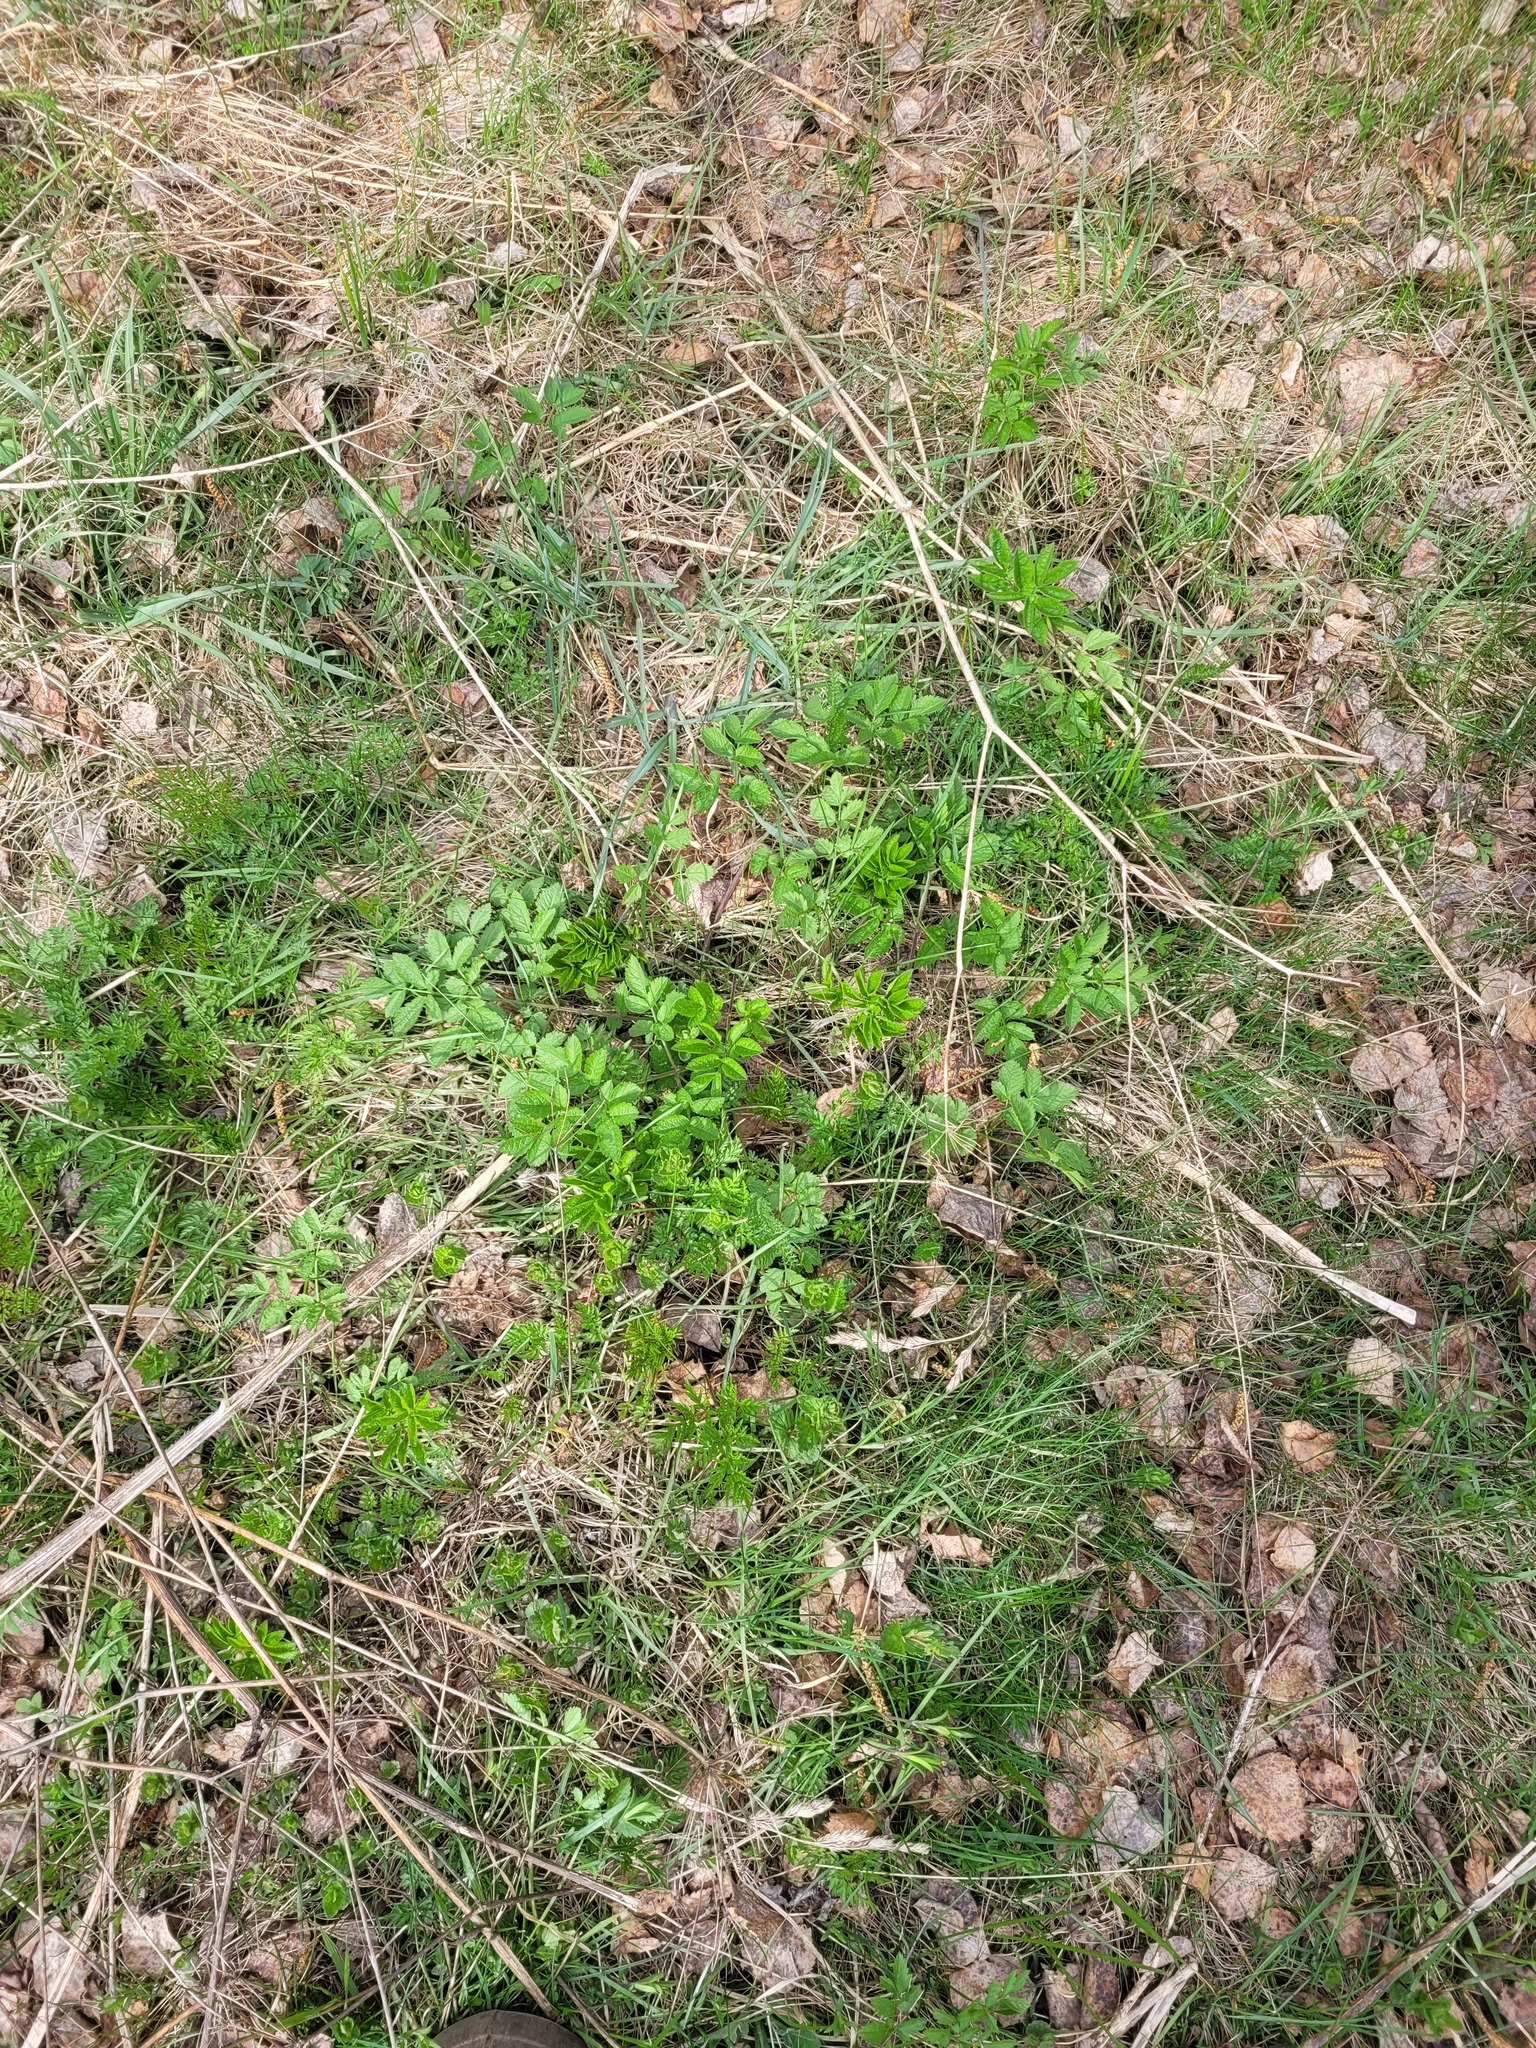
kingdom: Plantae
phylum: Tracheophyta
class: Magnoliopsida
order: Apiales
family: Apiaceae
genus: Chaerophyllum
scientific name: Chaerophyllum aromaticum
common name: Broadleaf chervil
